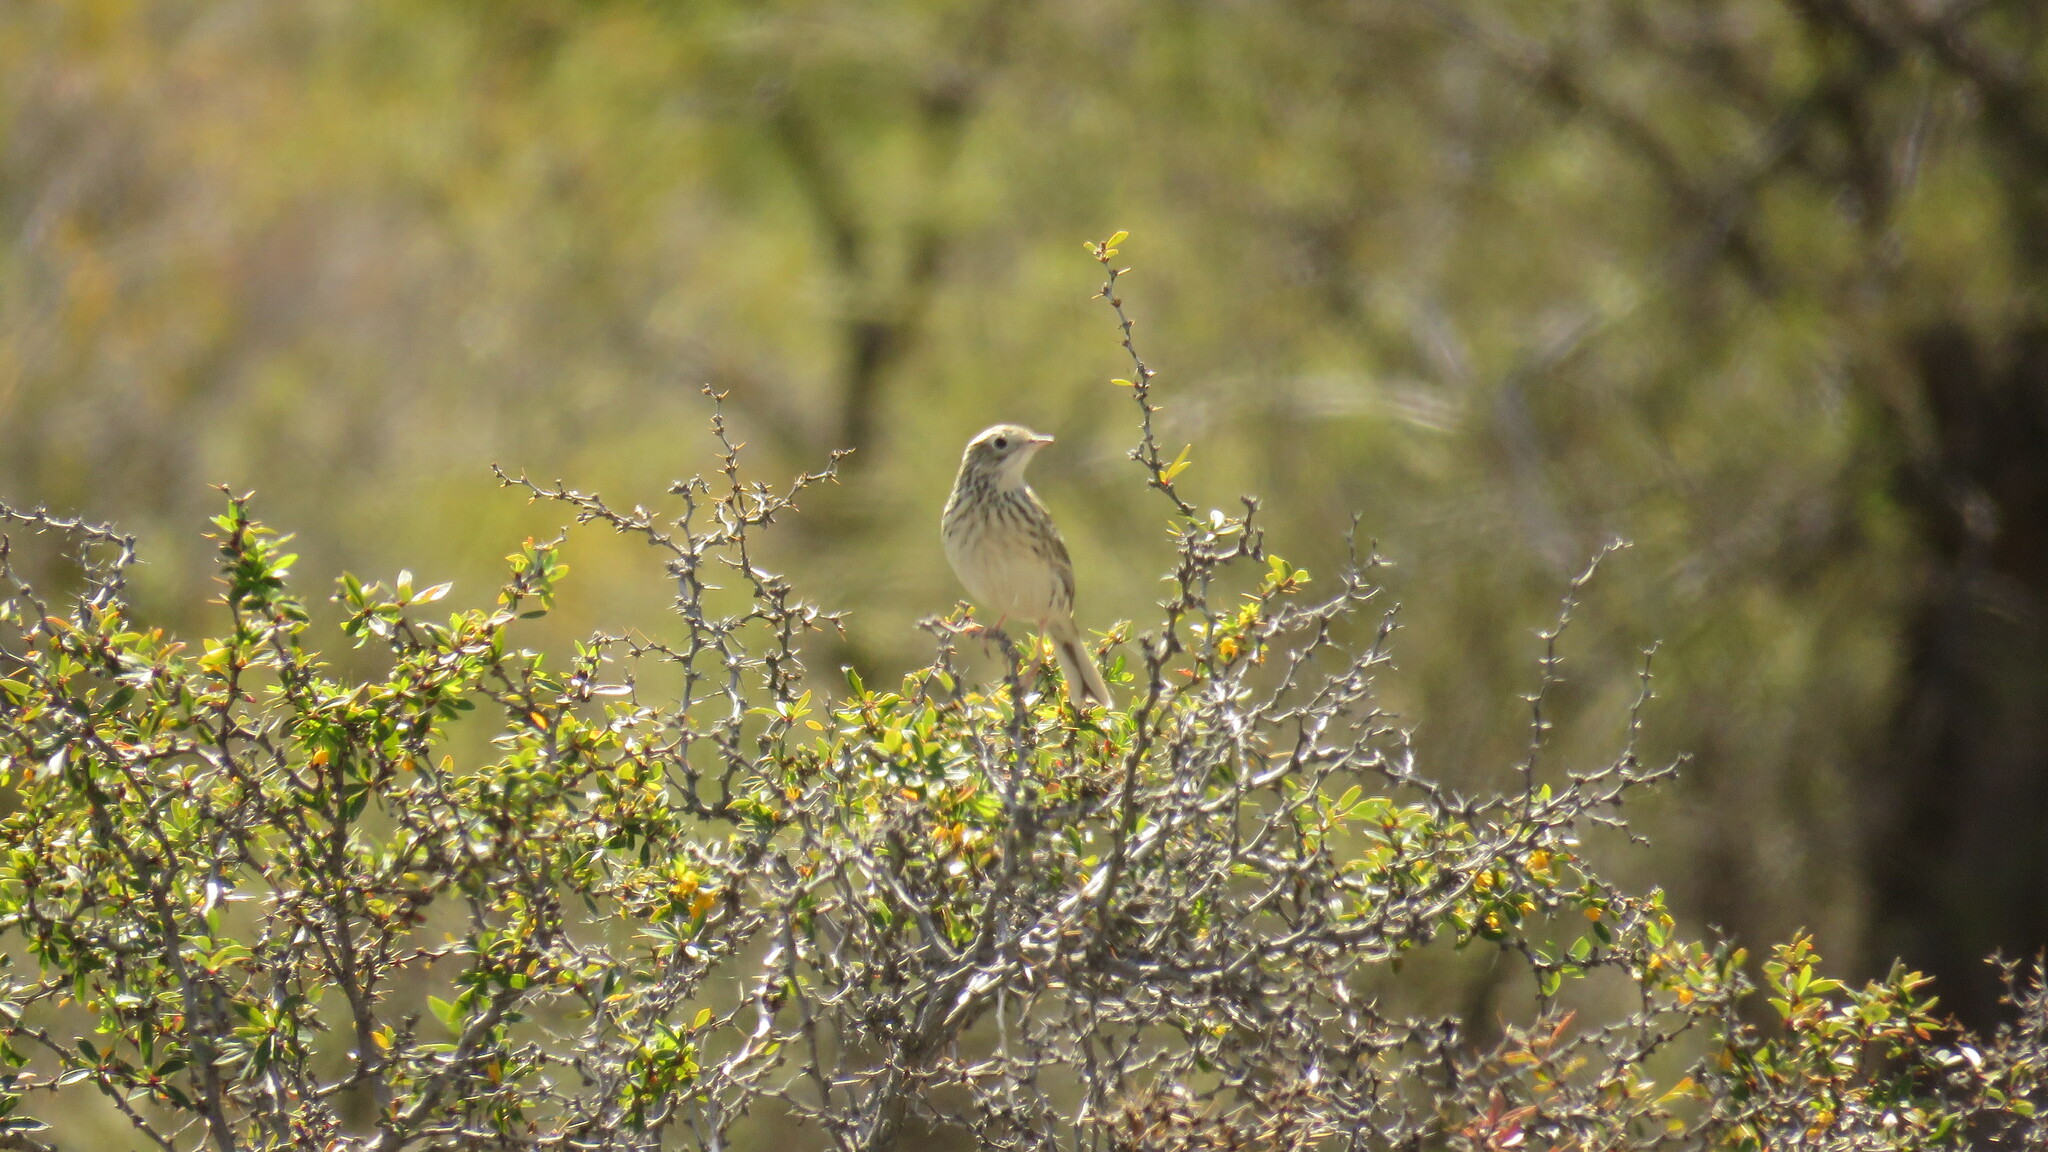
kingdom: Animalia
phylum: Chordata
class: Aves
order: Passeriformes
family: Motacillidae
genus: Anthus
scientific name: Anthus correndera
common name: Correndera pipit
